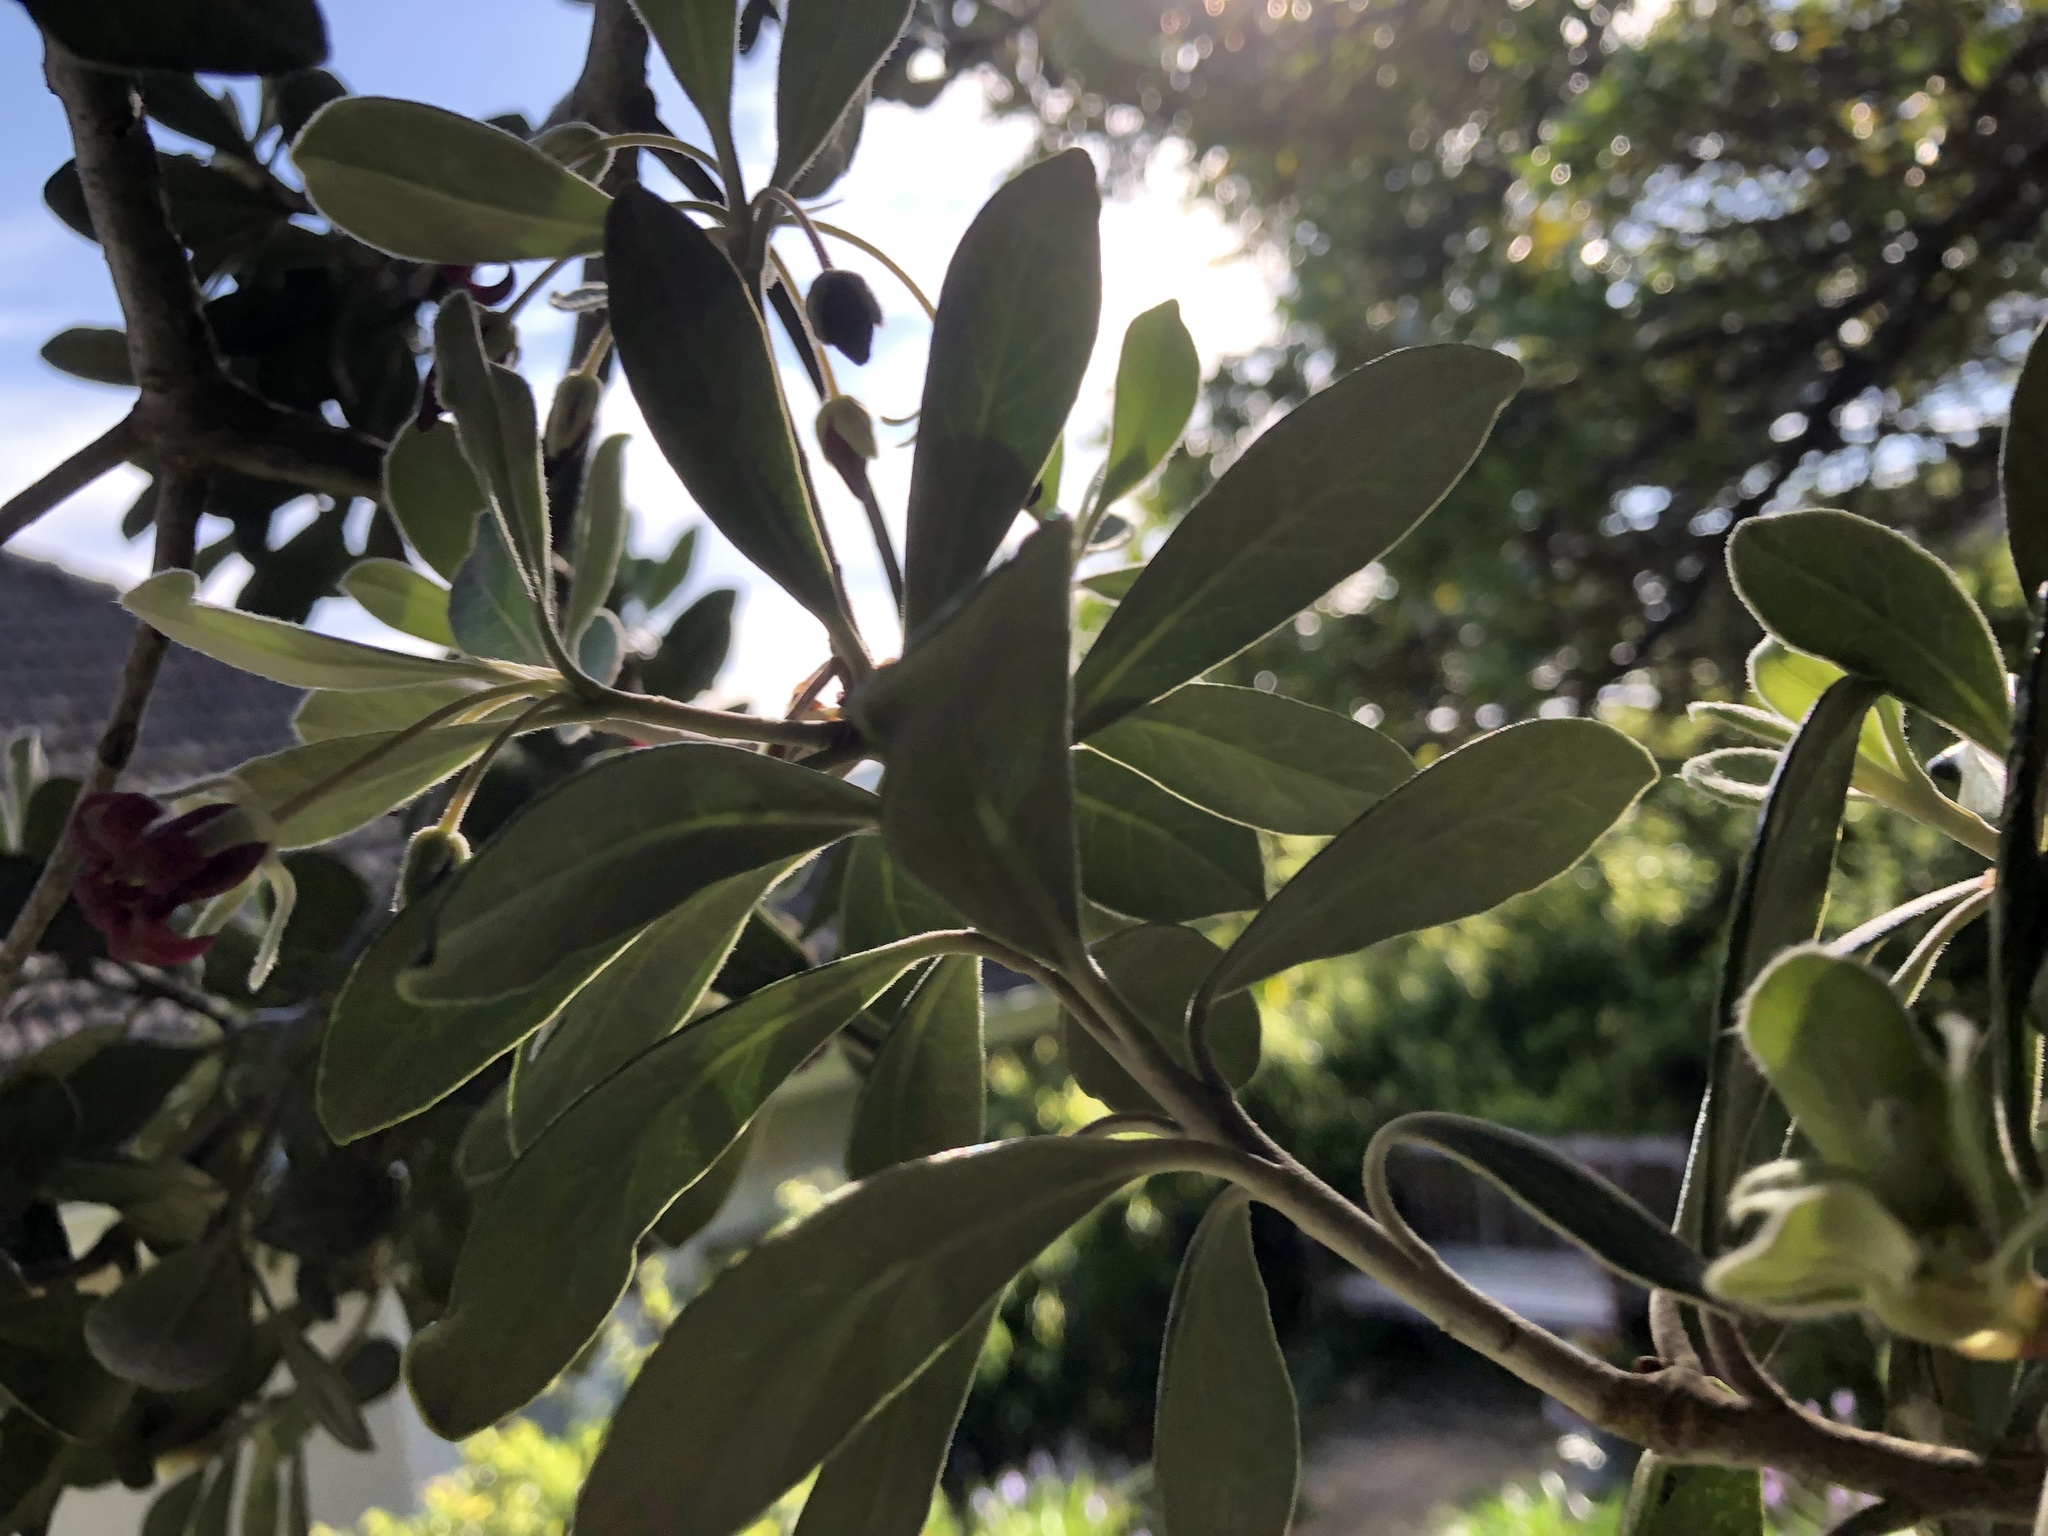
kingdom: Plantae
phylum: Tracheophyta
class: Magnoliopsida
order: Apiales
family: Pittosporaceae
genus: Pittosporum
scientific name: Pittosporum crassifolium
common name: Karo
